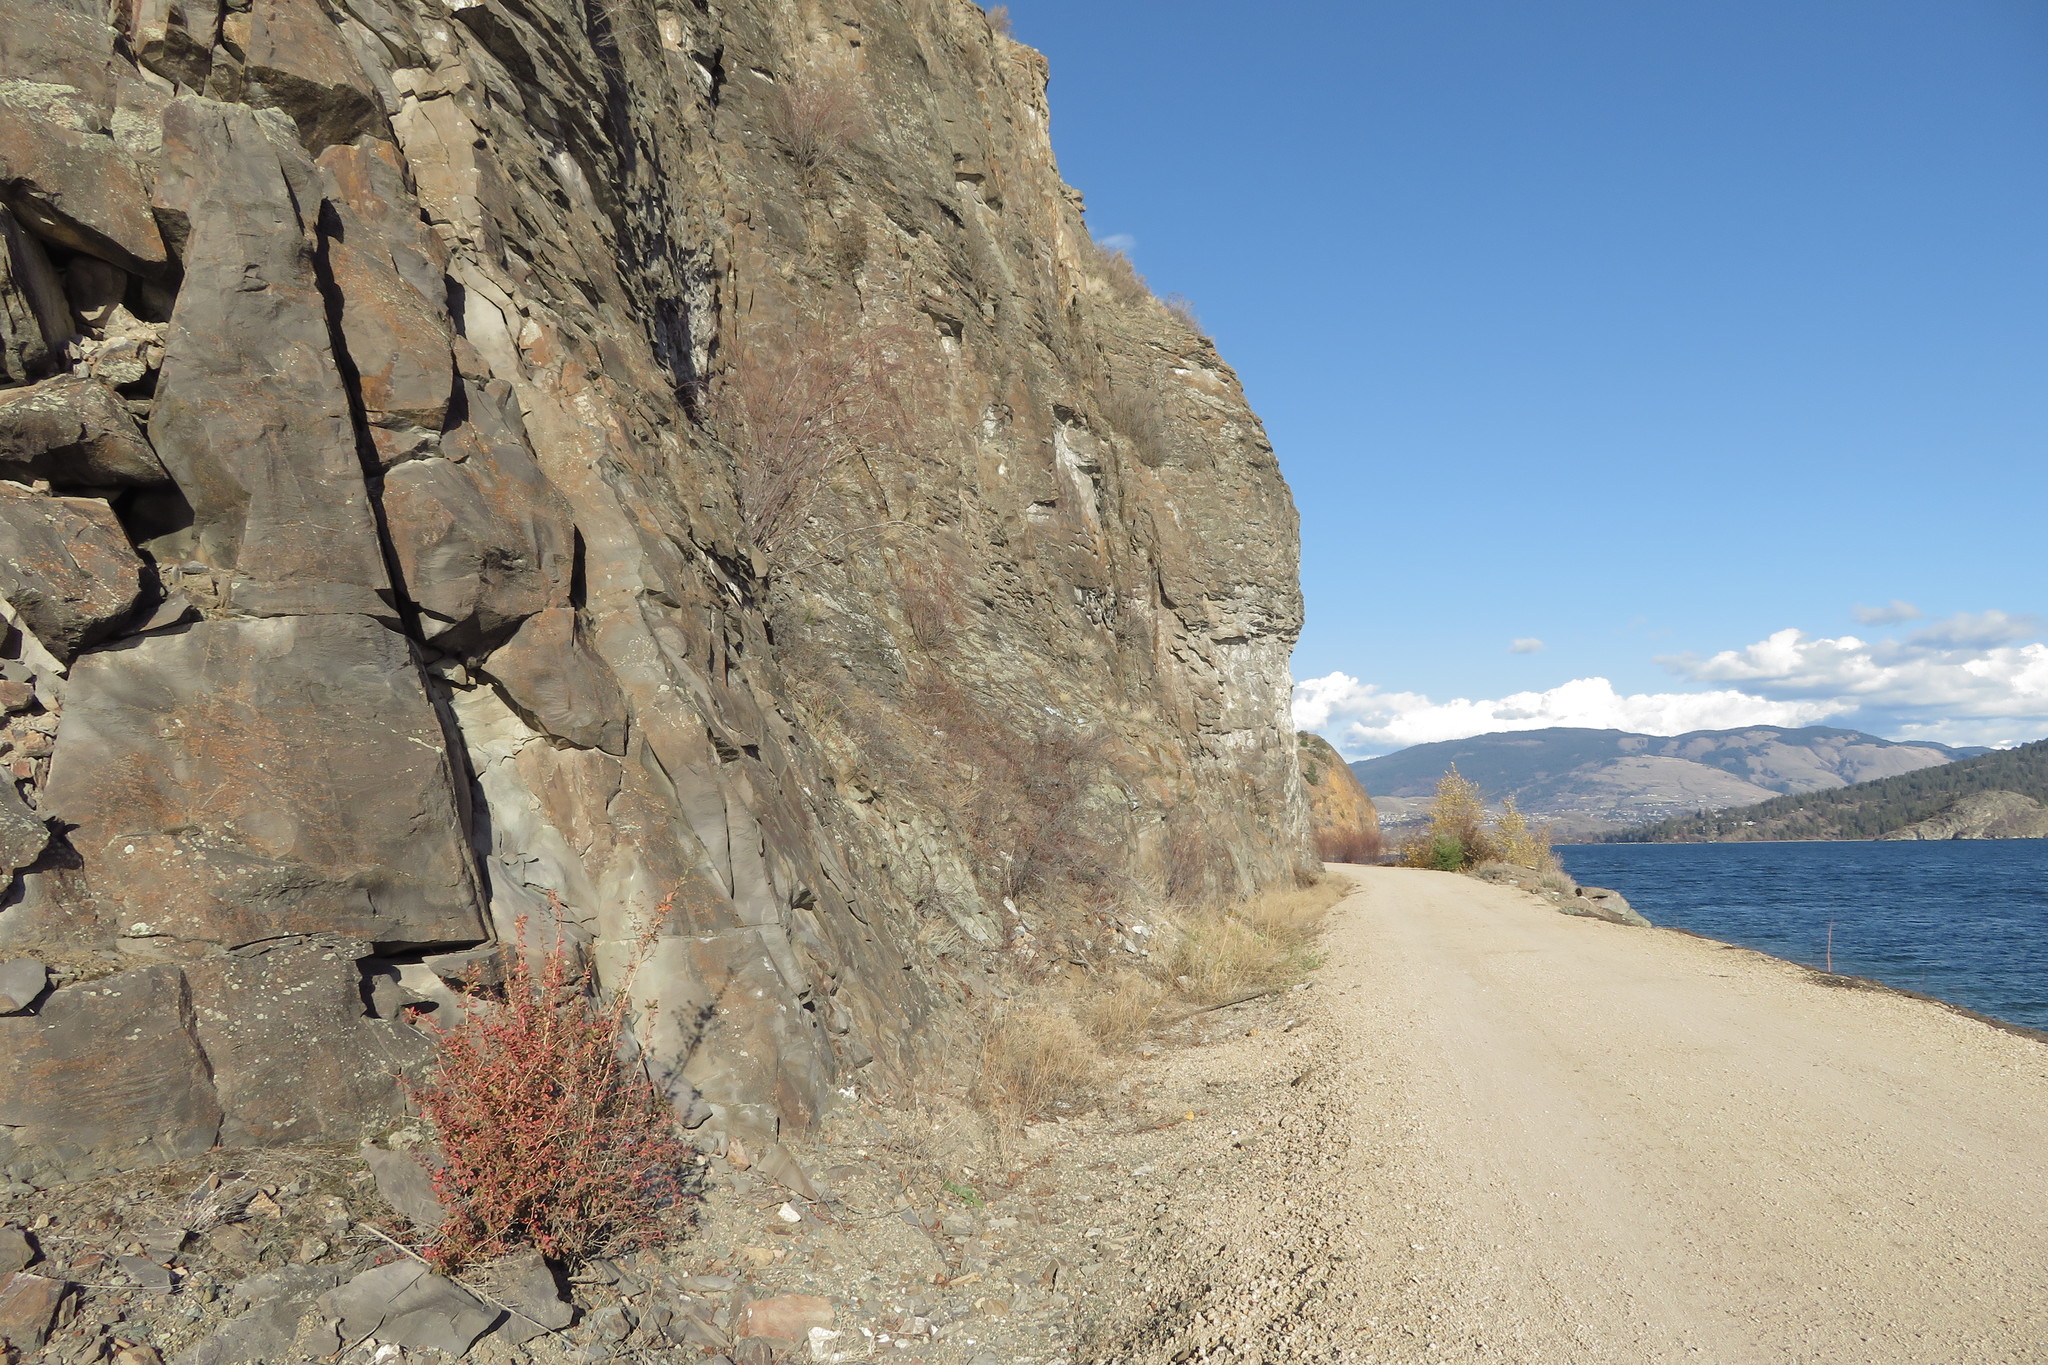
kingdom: Plantae
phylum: Tracheophyta
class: Magnoliopsida
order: Ranunculales
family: Berberidaceae
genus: Berberis
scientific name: Berberis vulgaris
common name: Barberry
